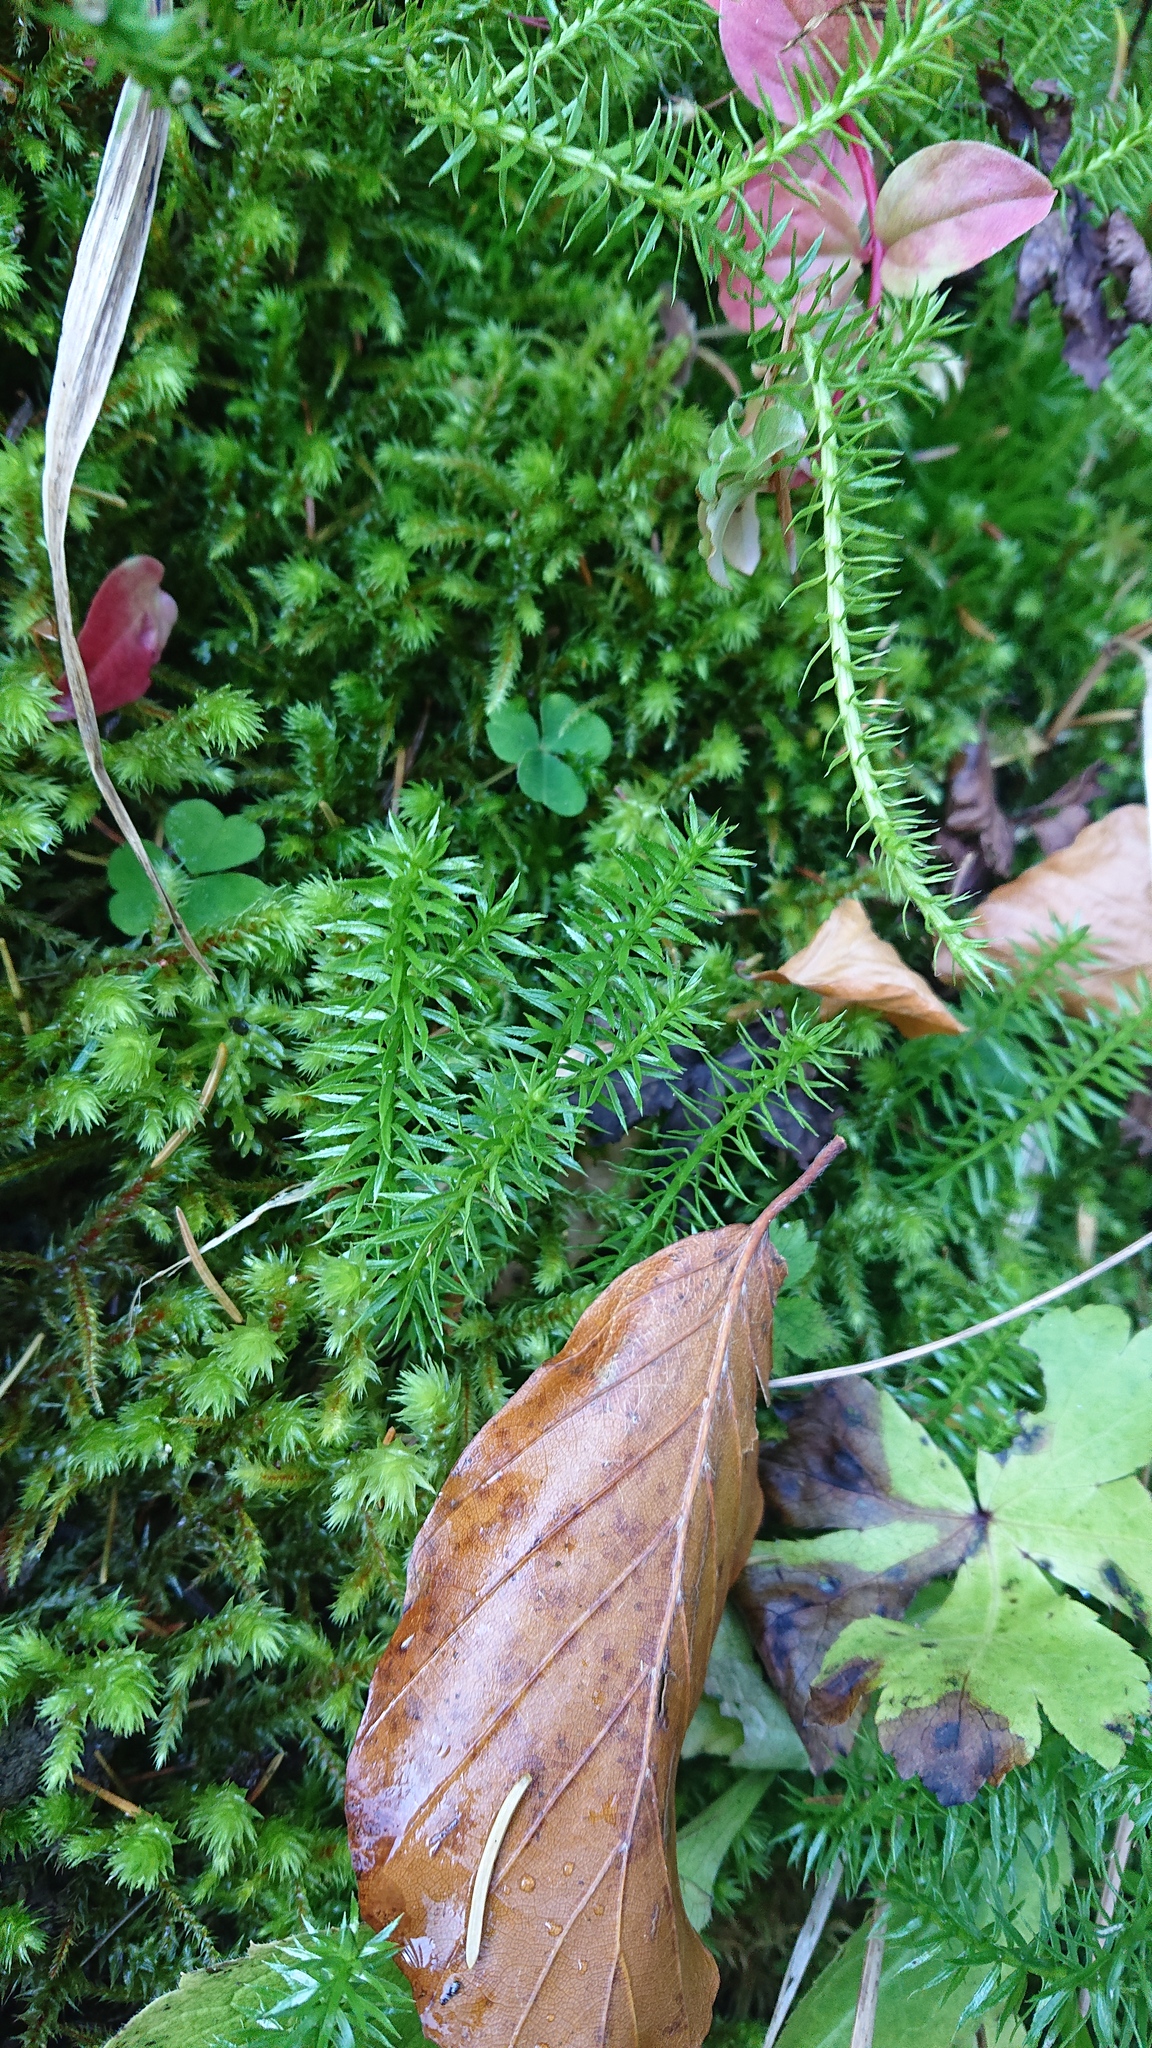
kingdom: Plantae
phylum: Tracheophyta
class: Lycopodiopsida
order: Lycopodiales
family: Lycopodiaceae
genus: Spinulum
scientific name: Spinulum annotinum
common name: Interrupted club-moss
